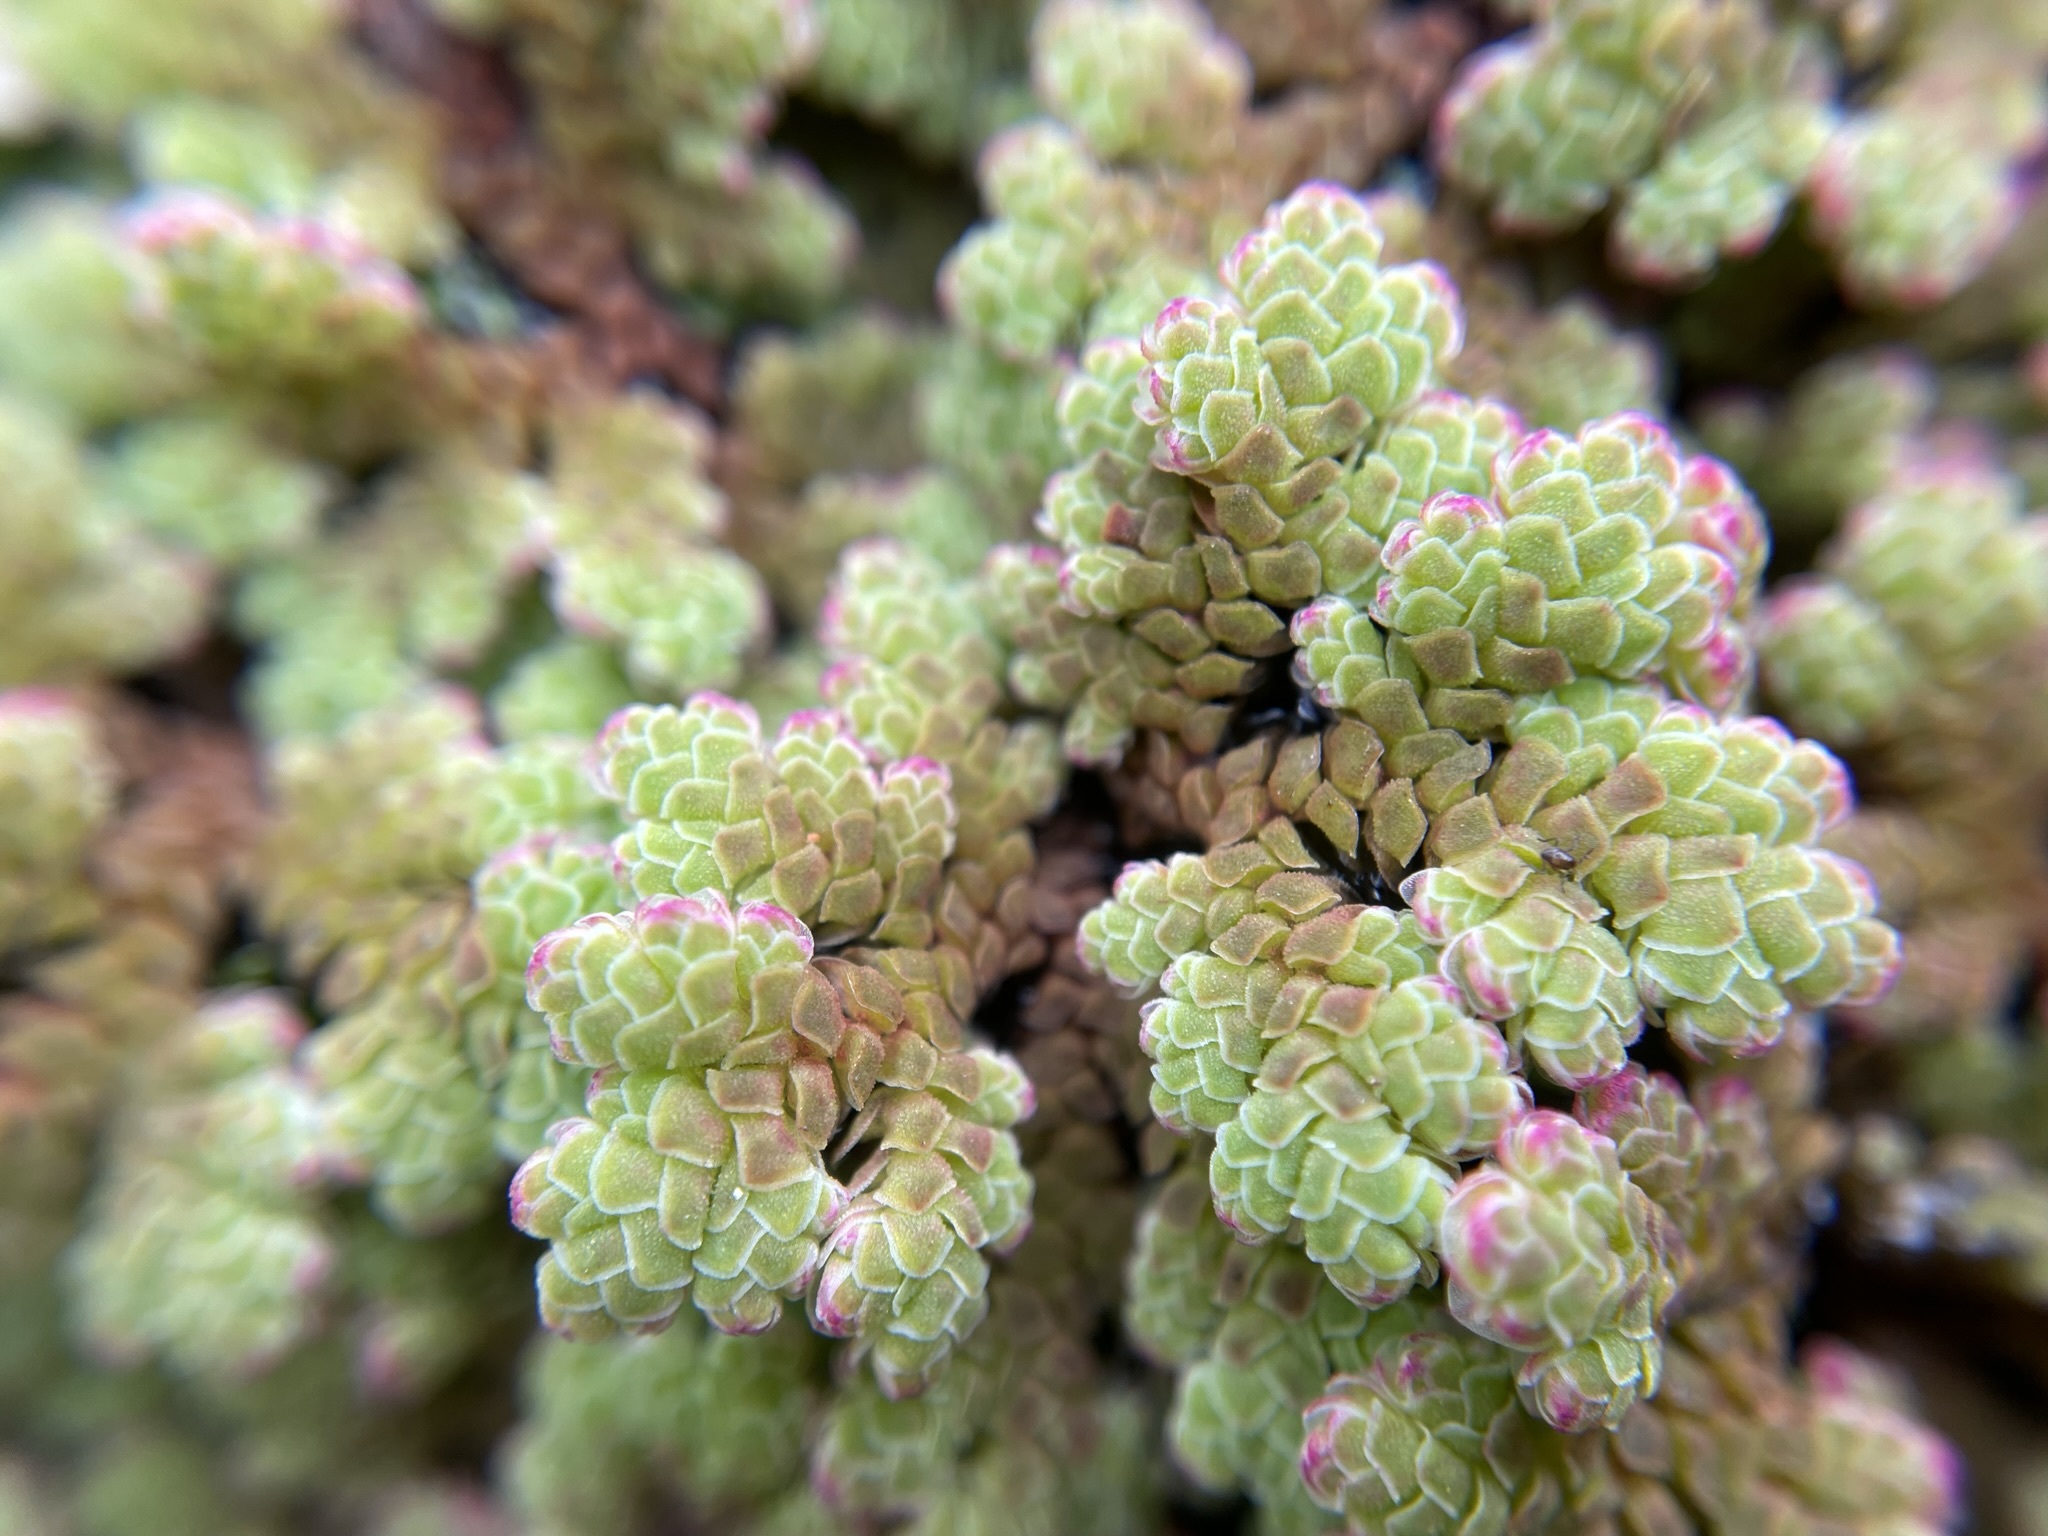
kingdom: Plantae
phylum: Tracheophyta
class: Polypodiopsida
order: Salviniales
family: Salviniaceae
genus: Azolla
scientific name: Azolla rubra
